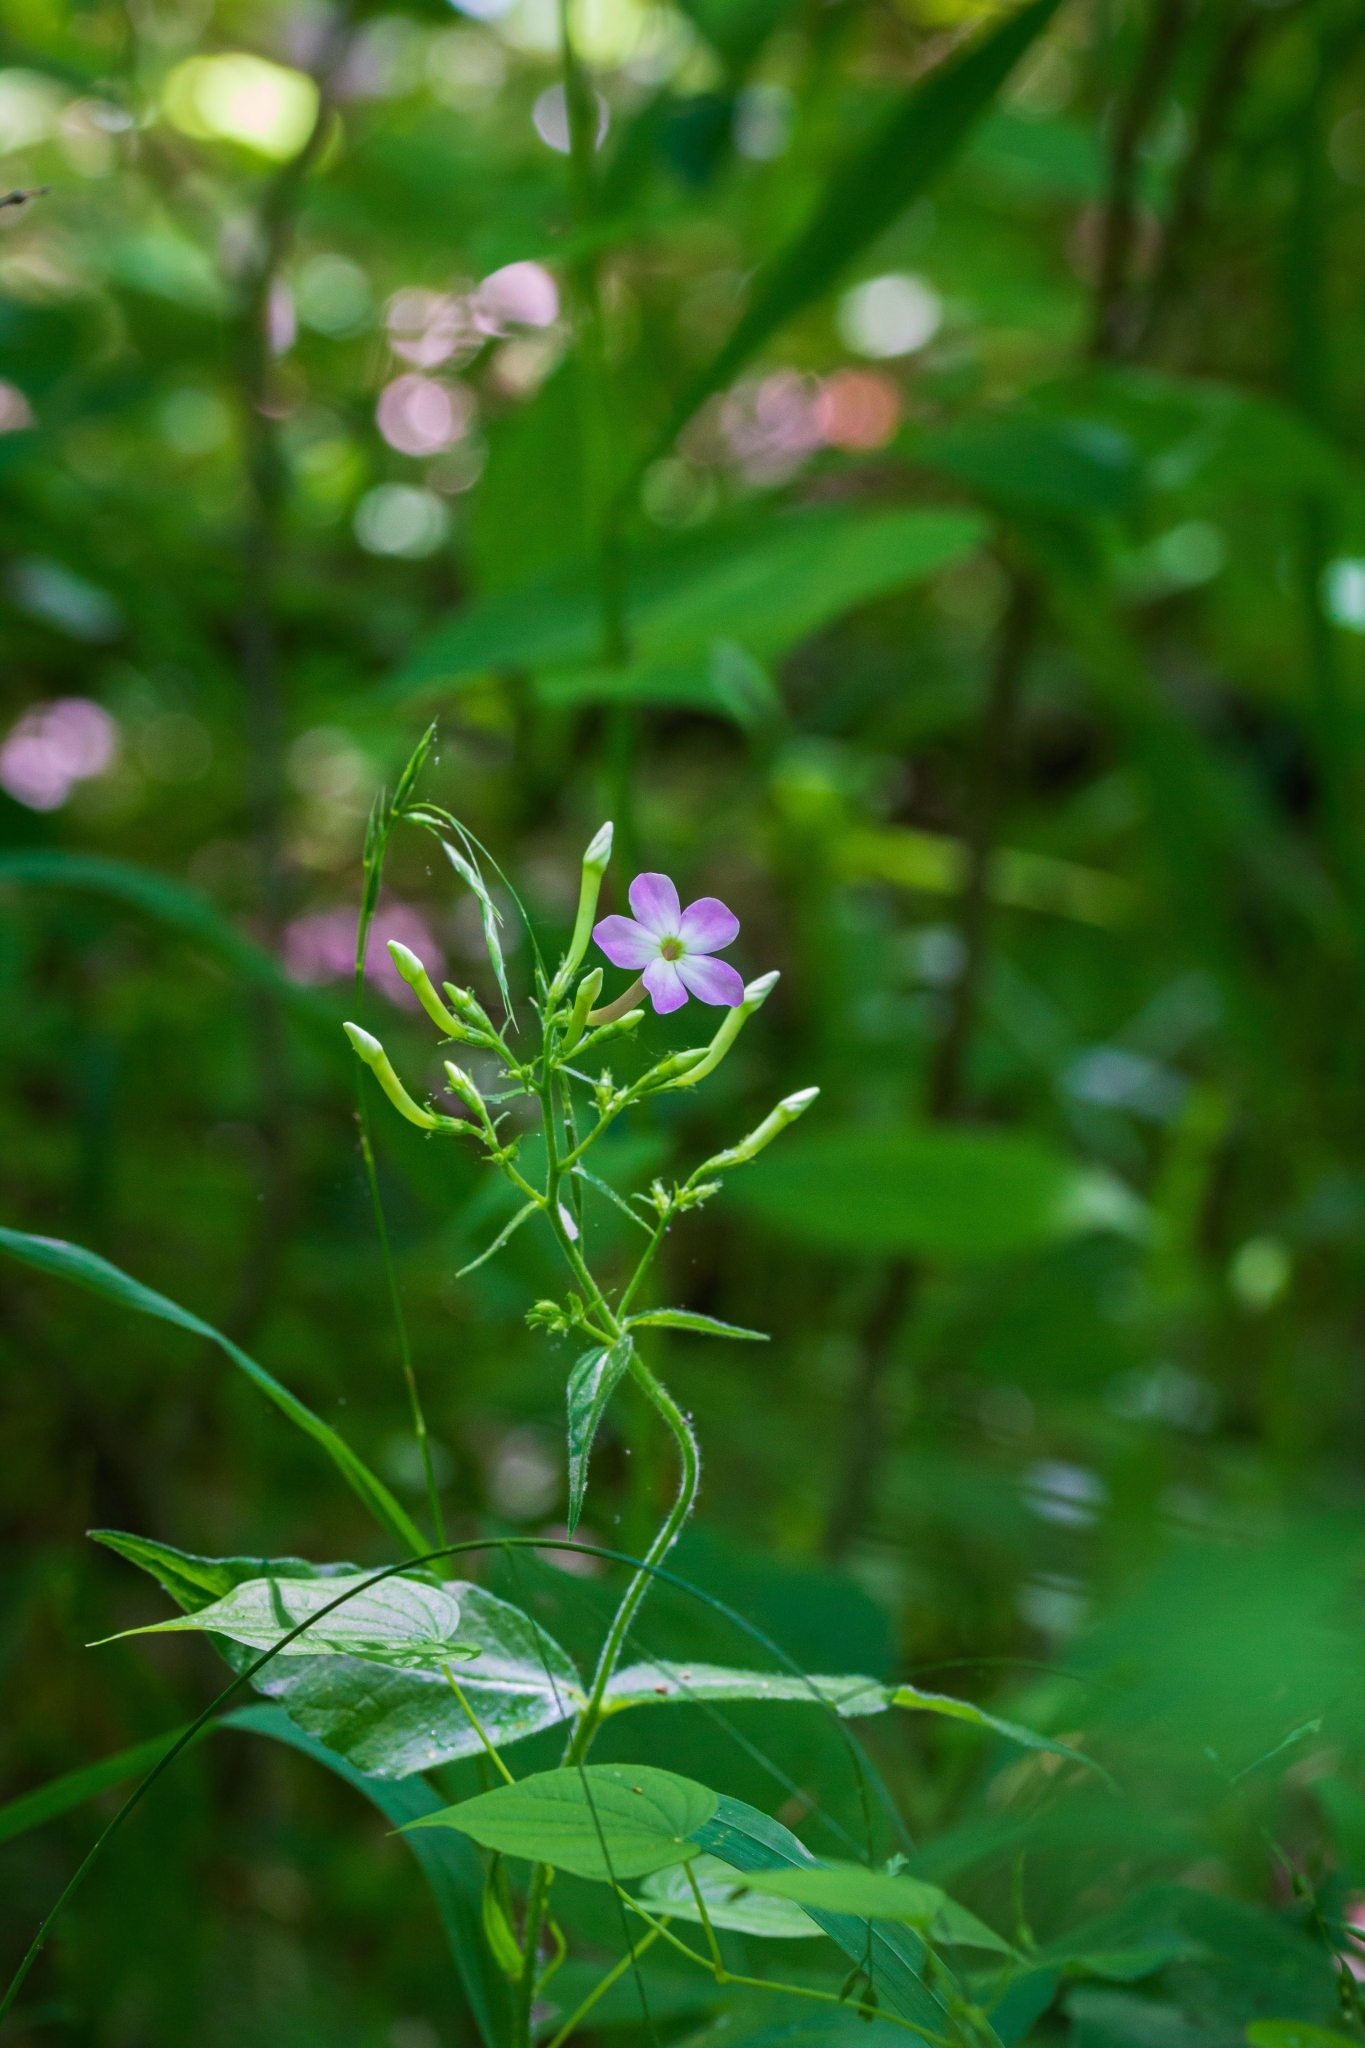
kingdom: Plantae
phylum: Tracheophyta
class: Magnoliopsida
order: Ericales
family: Polemoniaceae
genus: Phlox
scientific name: Phlox amplifolia
